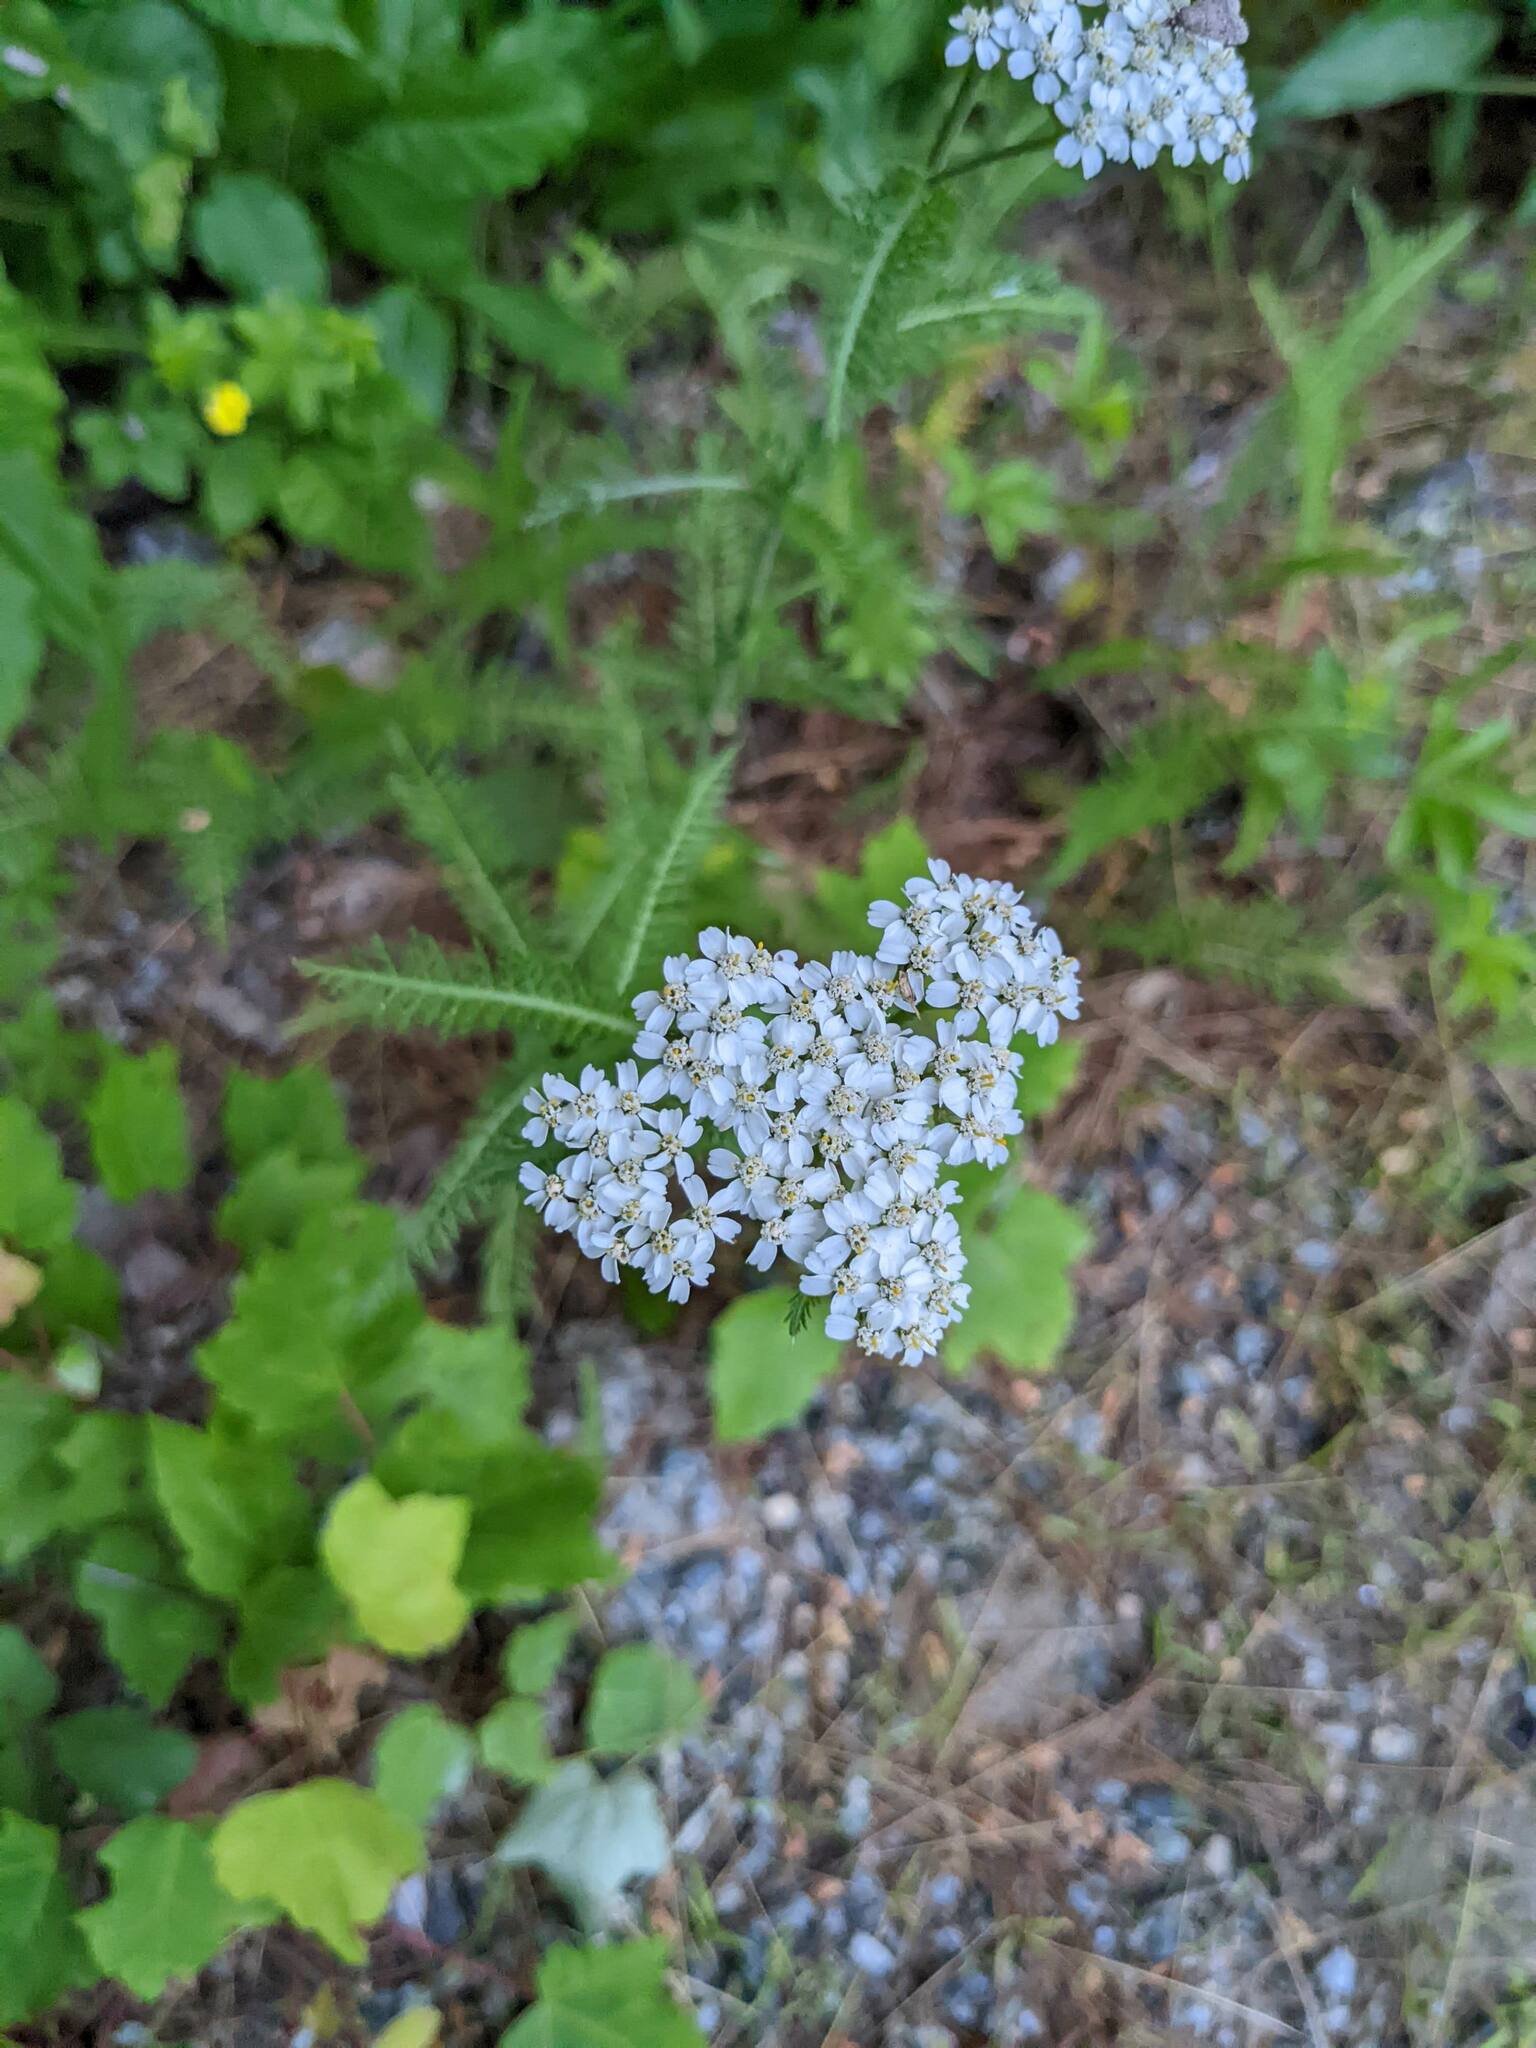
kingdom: Plantae
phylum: Tracheophyta
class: Magnoliopsida
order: Asterales
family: Asteraceae
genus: Achillea
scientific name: Achillea millefolium
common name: Yarrow
